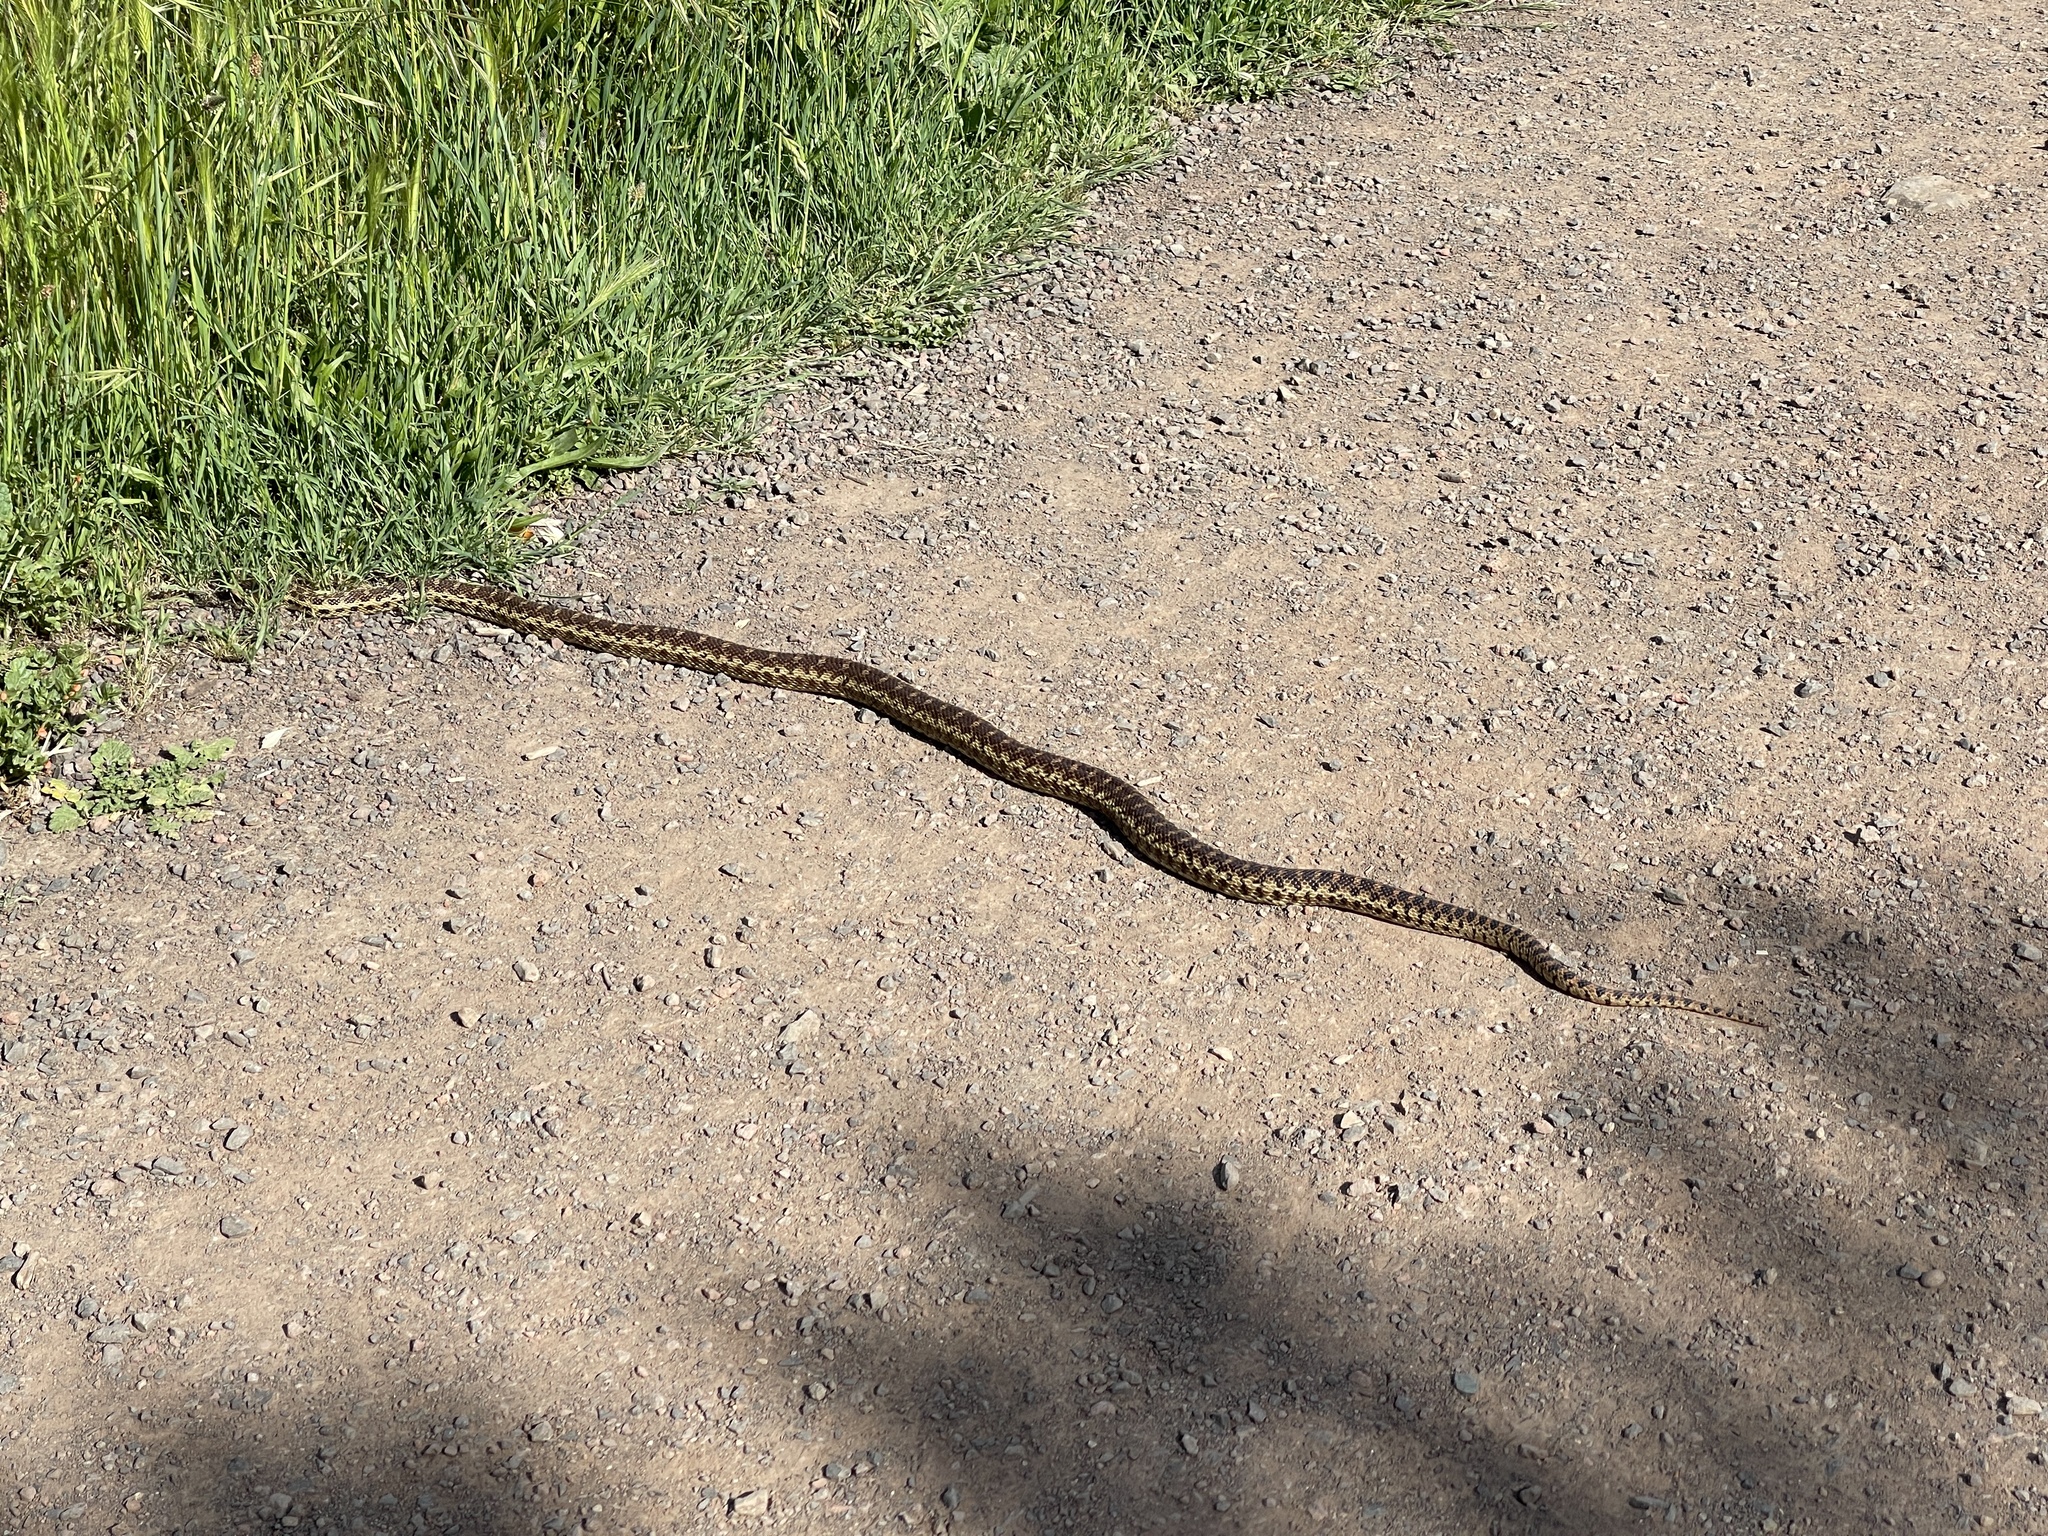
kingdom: Animalia
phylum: Chordata
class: Squamata
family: Colubridae
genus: Pituophis
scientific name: Pituophis catenifer
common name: Gopher snake
